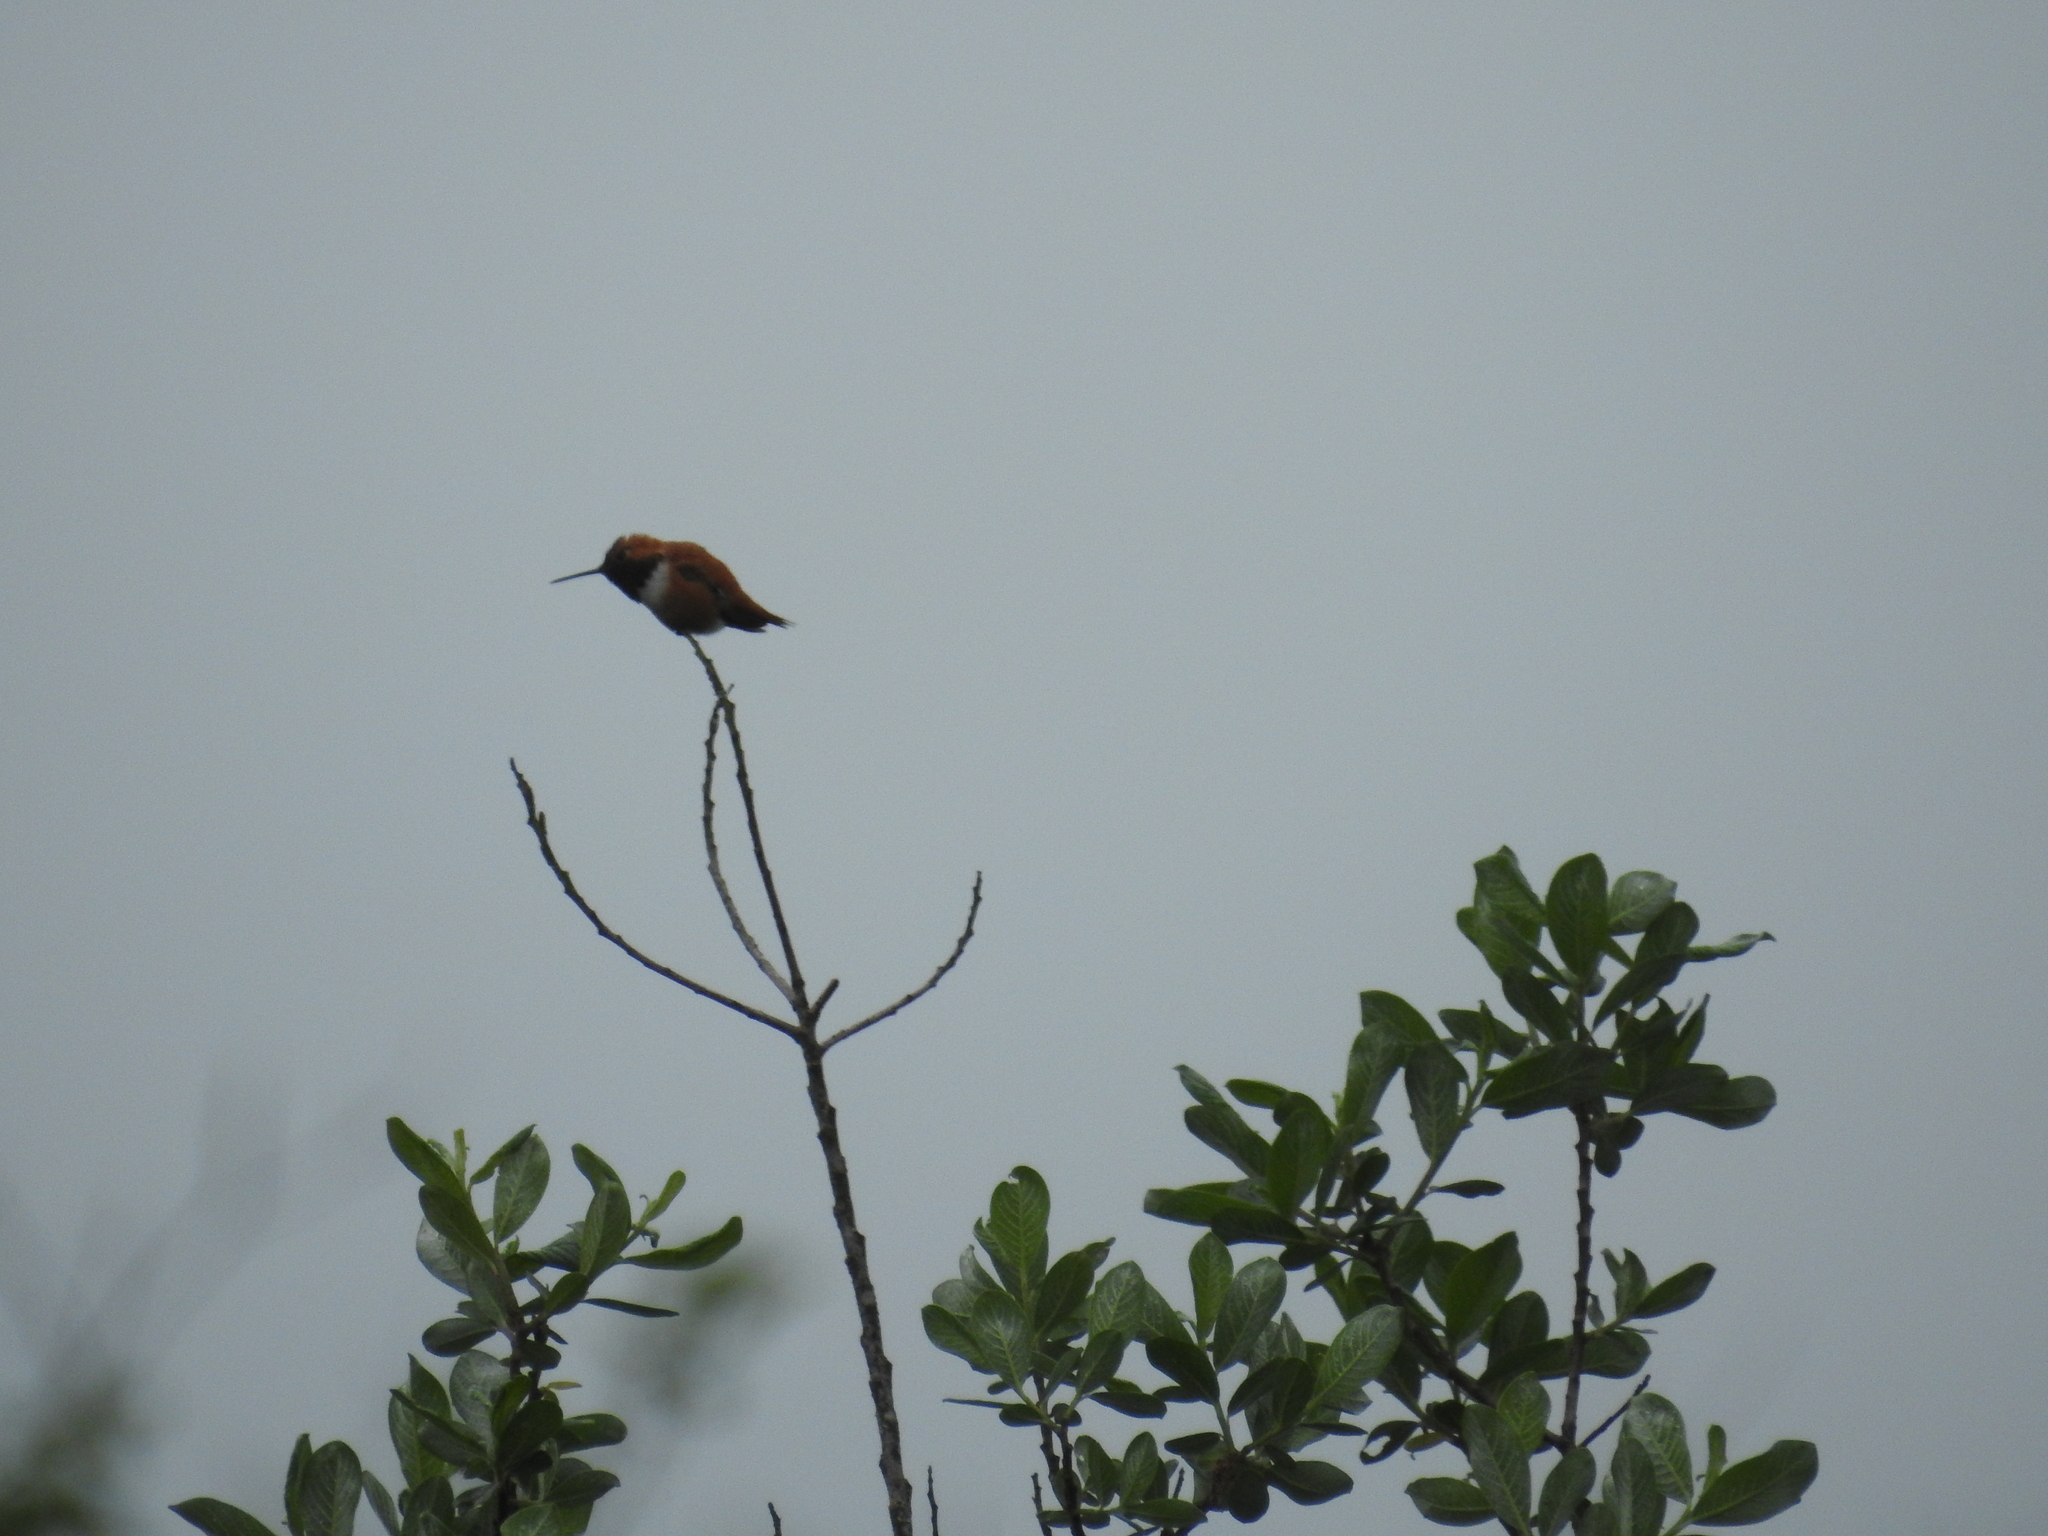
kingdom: Animalia
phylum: Chordata
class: Aves
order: Apodiformes
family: Trochilidae
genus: Selasphorus
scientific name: Selasphorus rufus
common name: Rufous hummingbird
